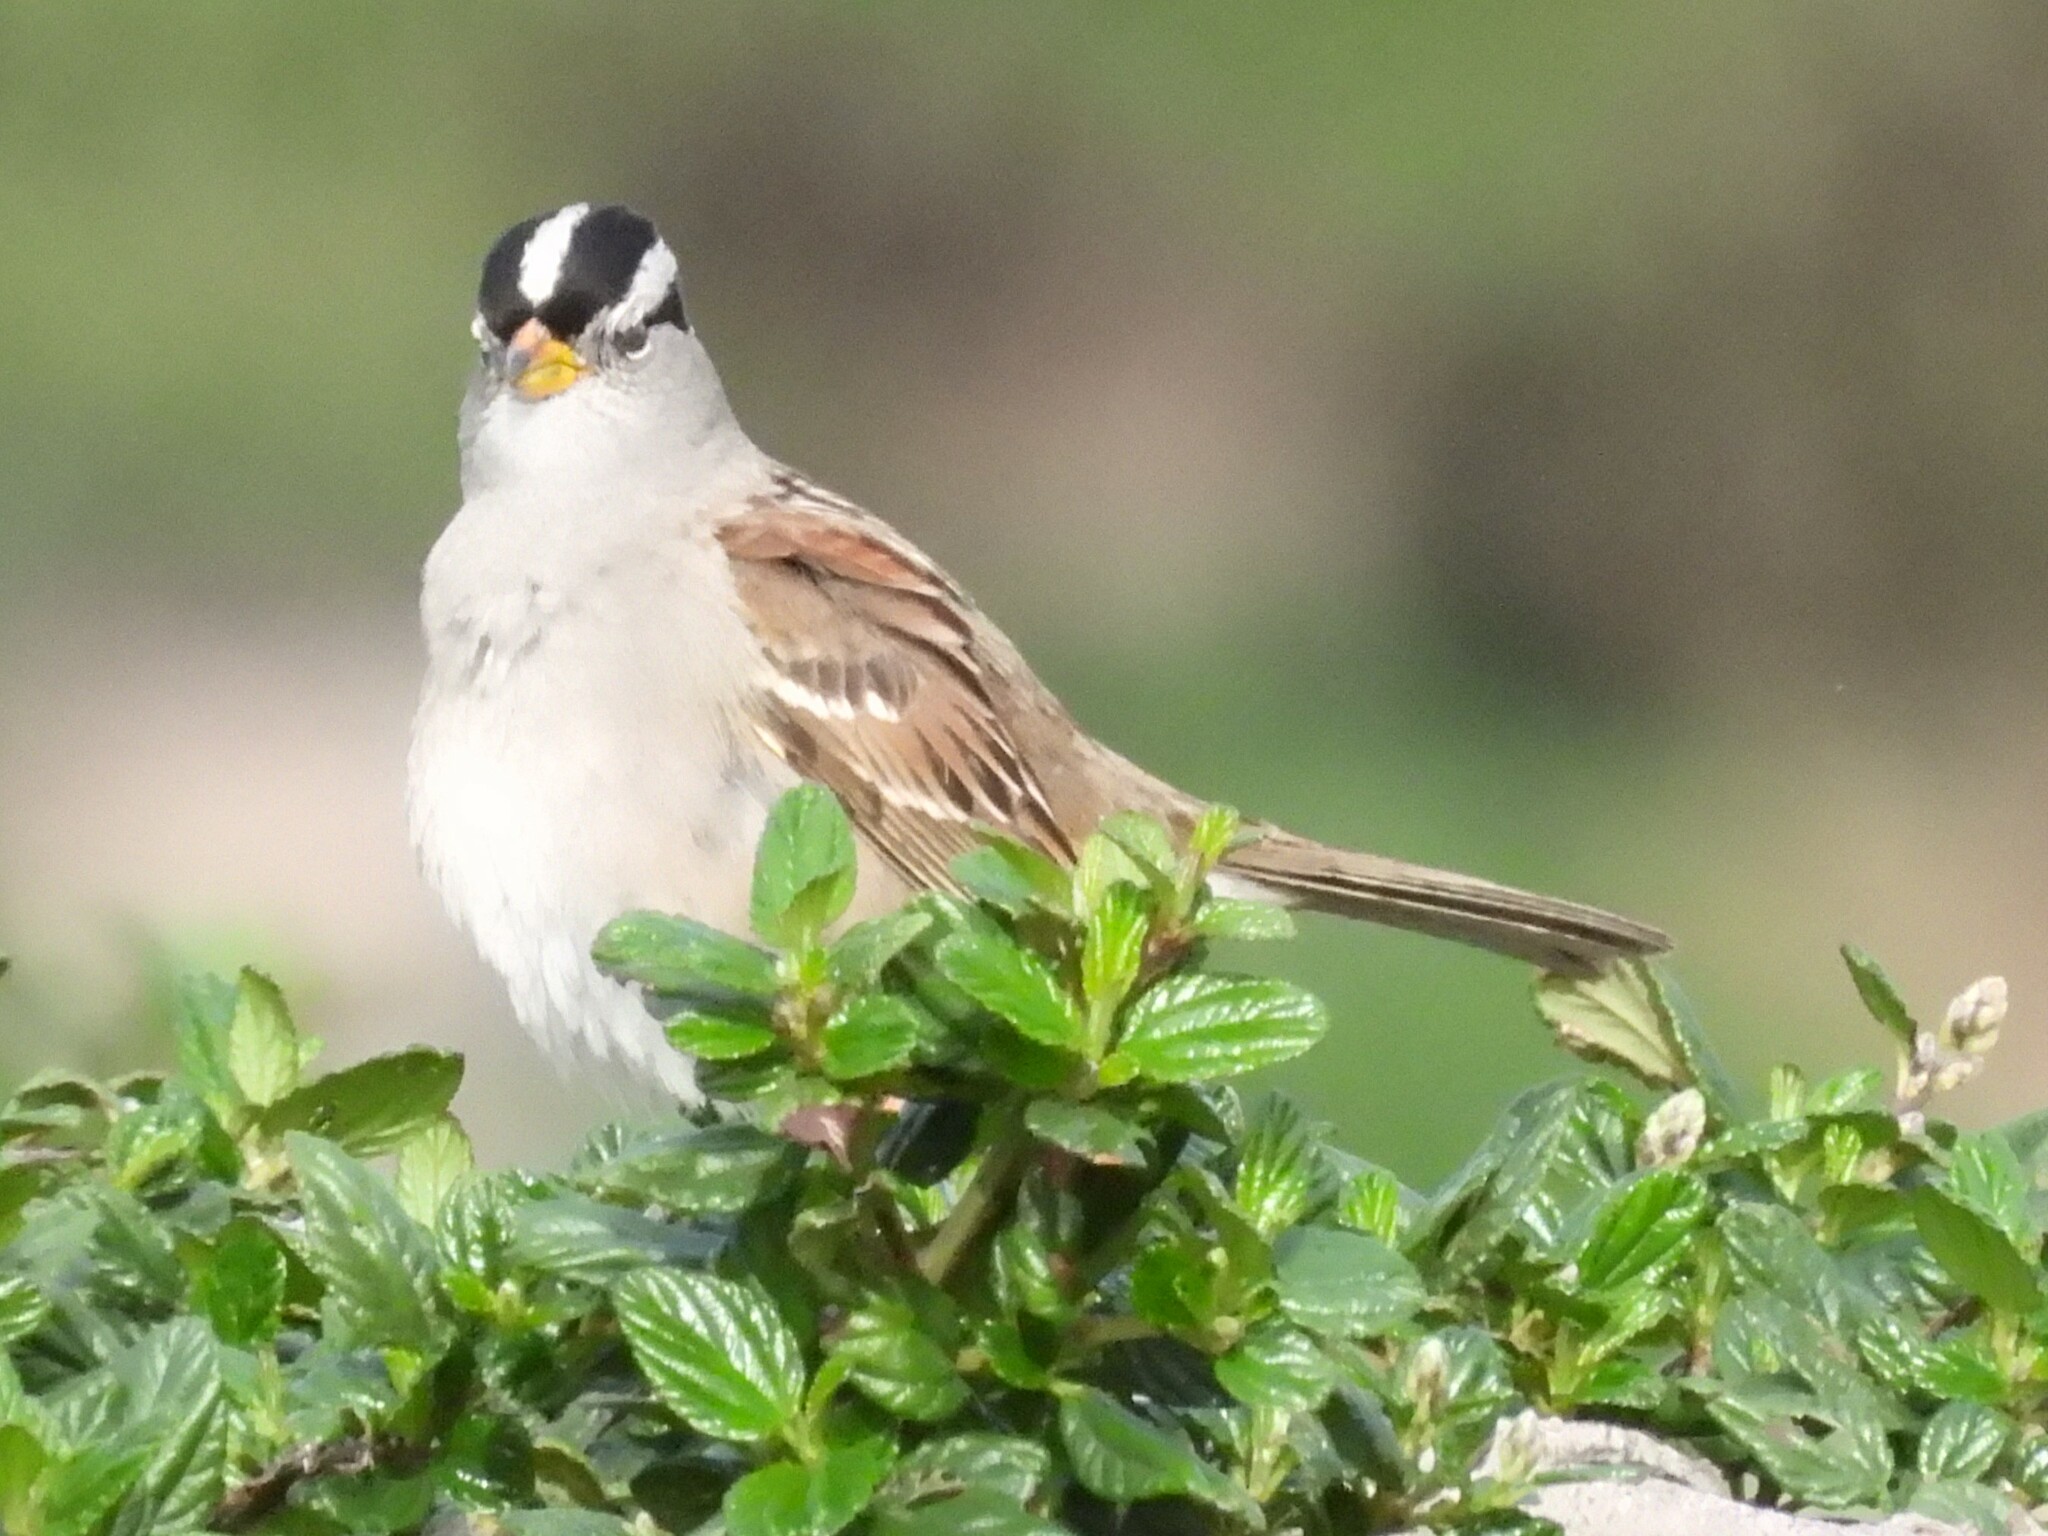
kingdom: Animalia
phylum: Chordata
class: Aves
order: Passeriformes
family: Passerellidae
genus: Zonotrichia
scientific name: Zonotrichia leucophrys
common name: White-crowned sparrow
